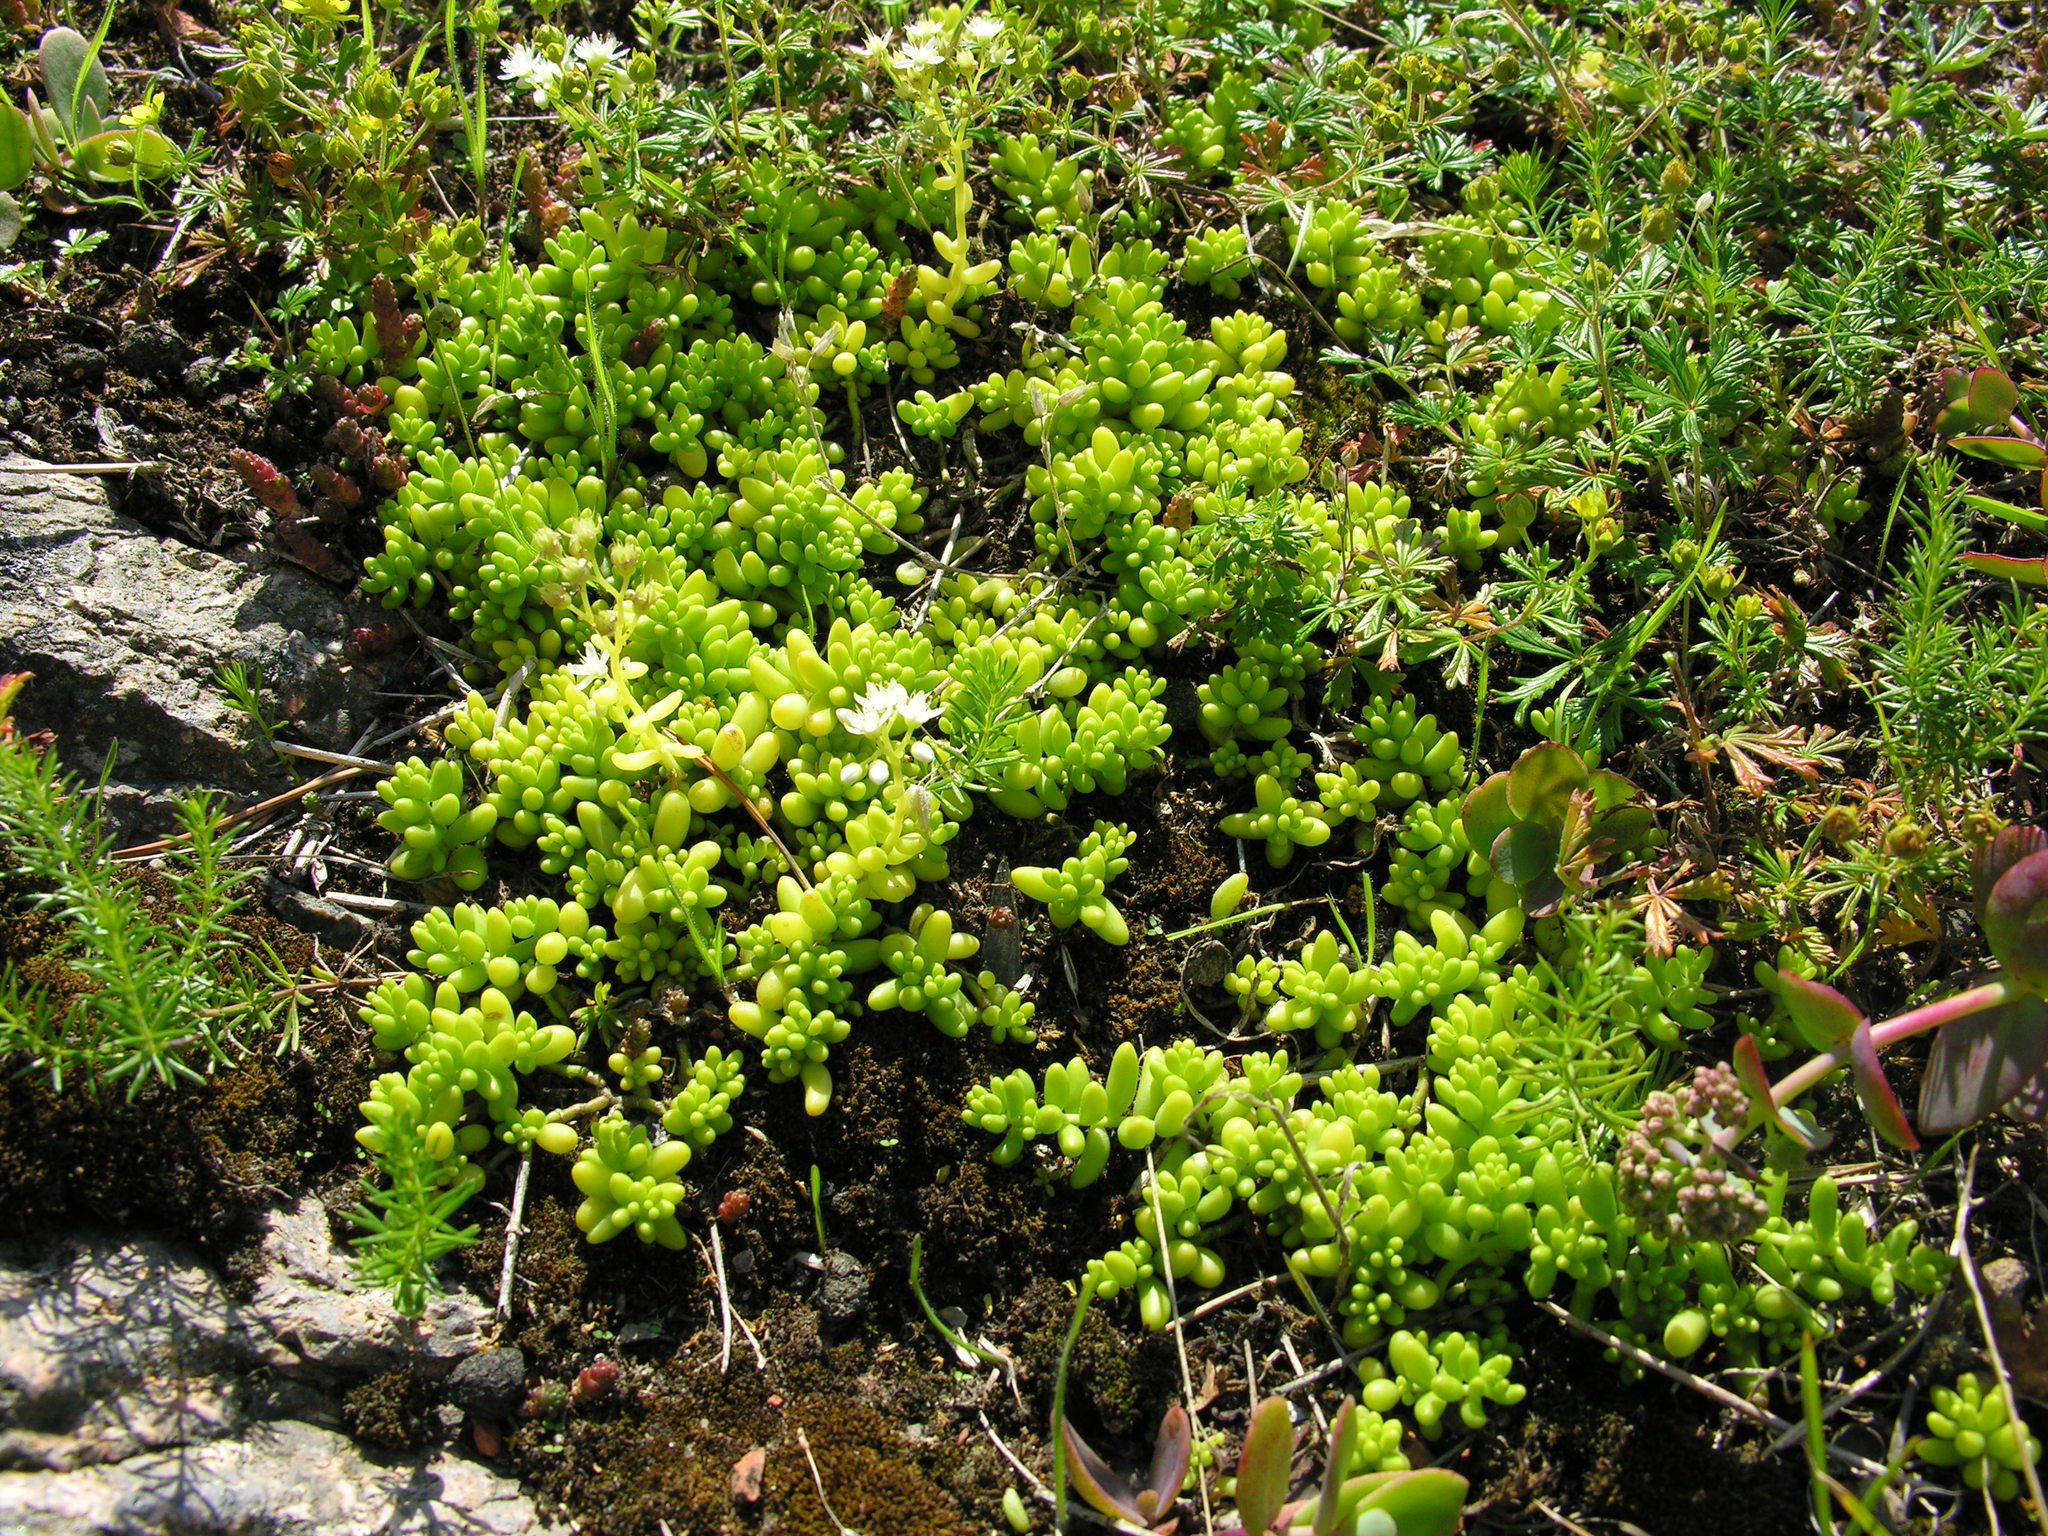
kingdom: Plantae
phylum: Tracheophyta
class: Magnoliopsida
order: Saxifragales
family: Crassulaceae
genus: Sedum
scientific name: Sedum album
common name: White stonecrop
